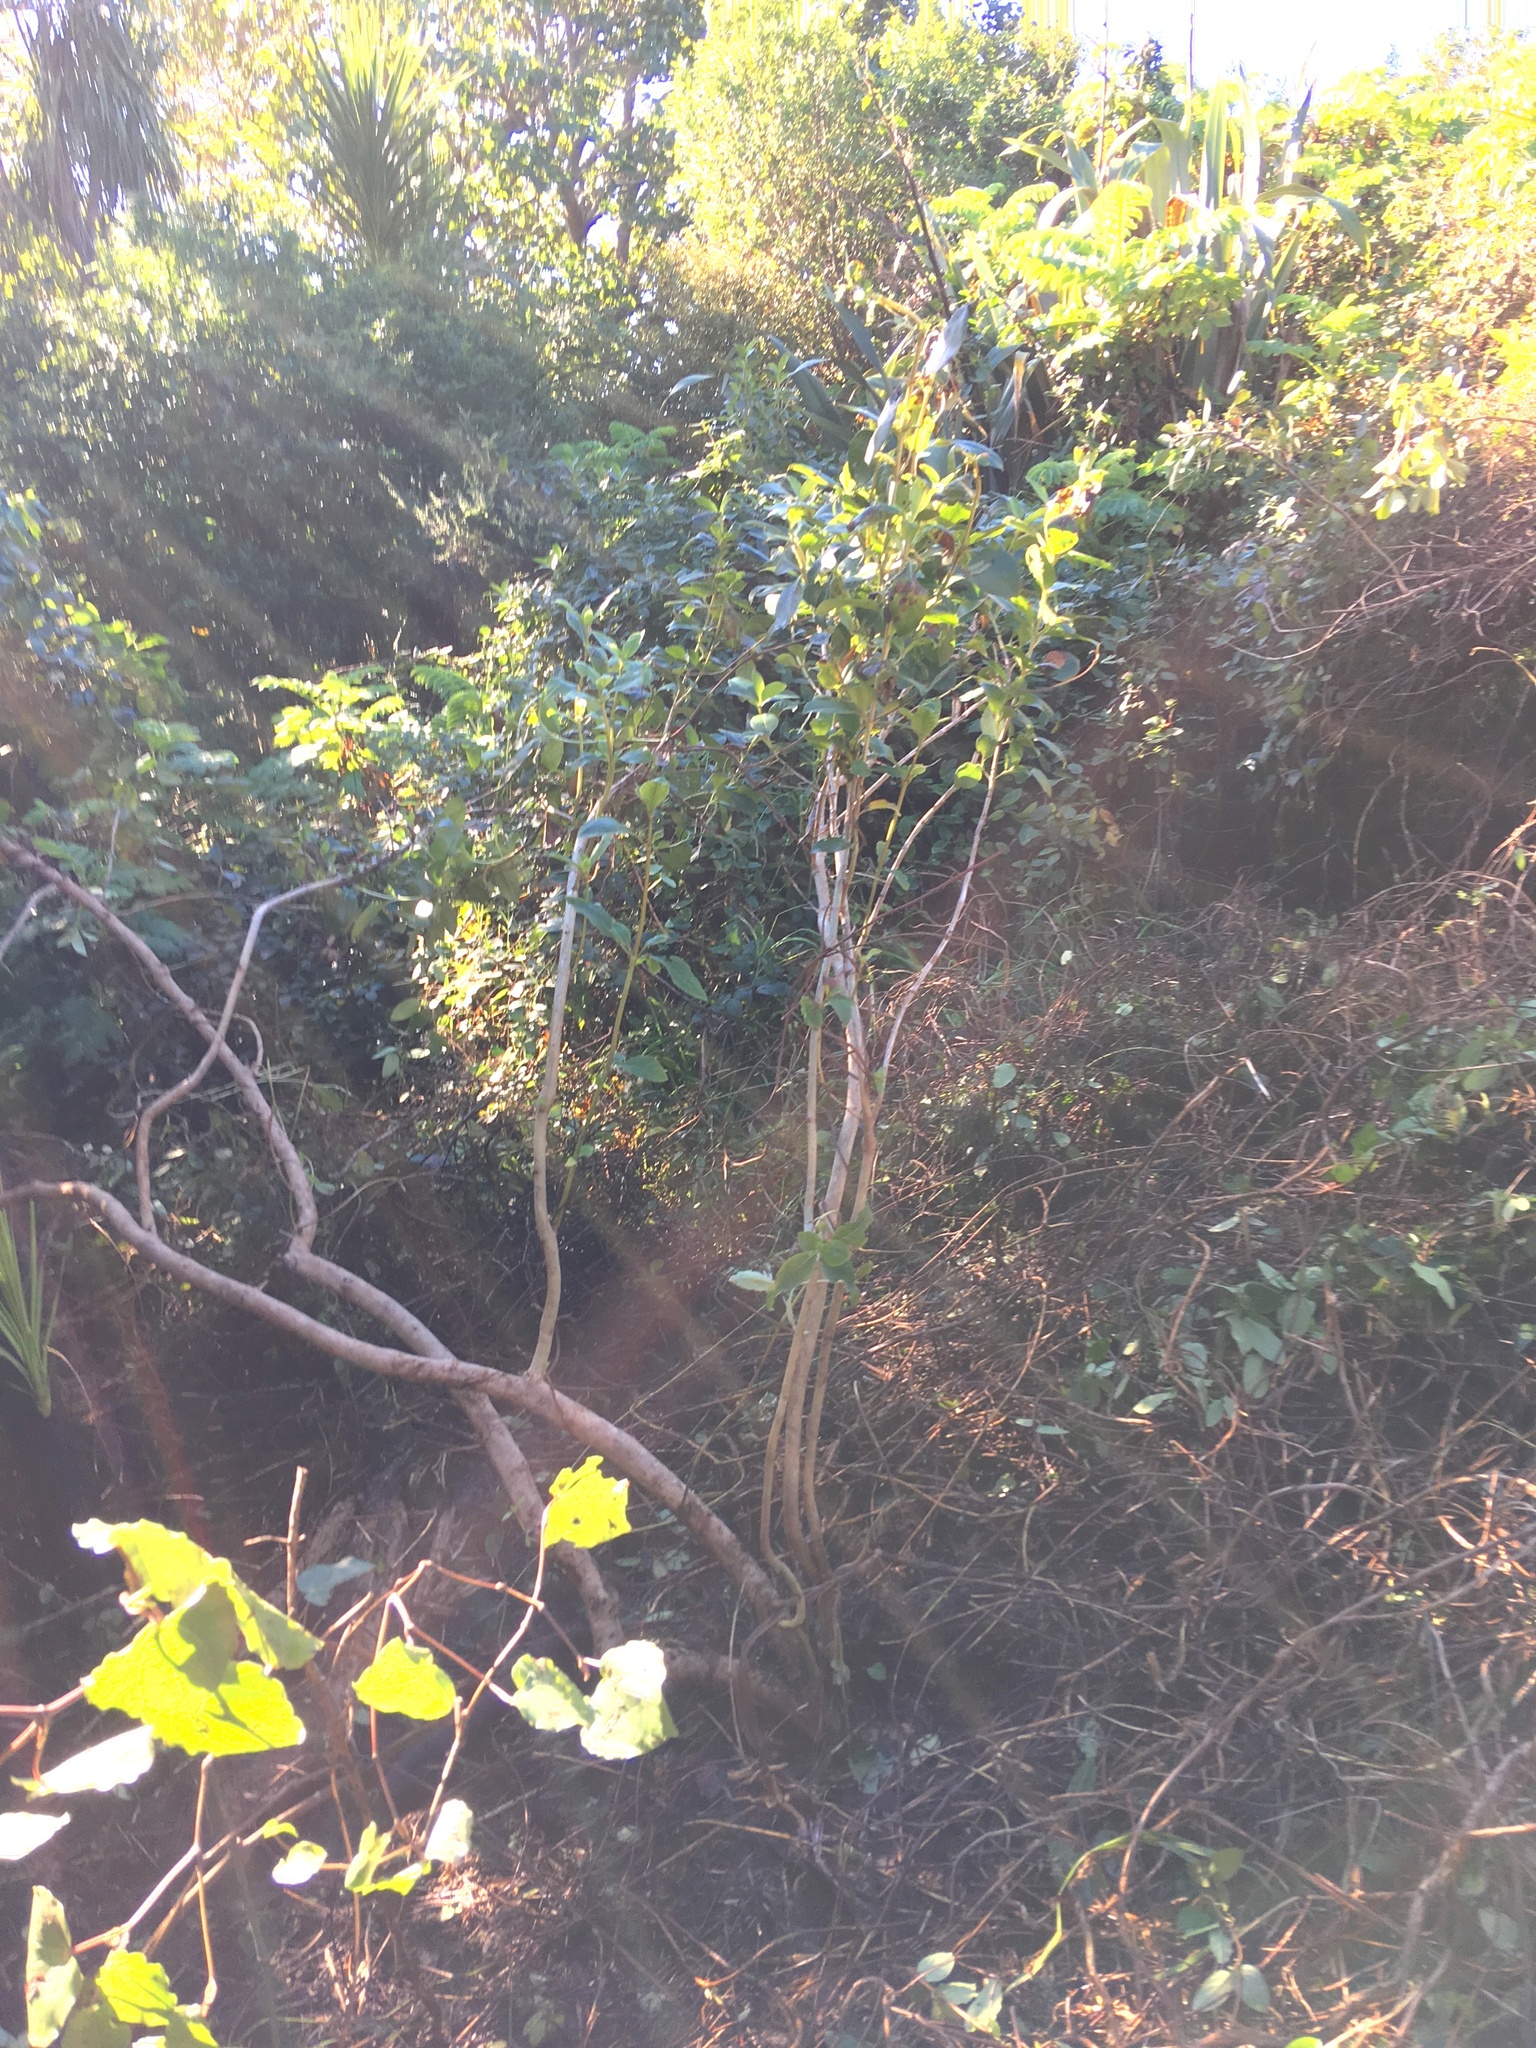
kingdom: Plantae
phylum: Tracheophyta
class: Magnoliopsida
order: Gentianales
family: Rubiaceae
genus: Coprosma
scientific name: Coprosma robusta
